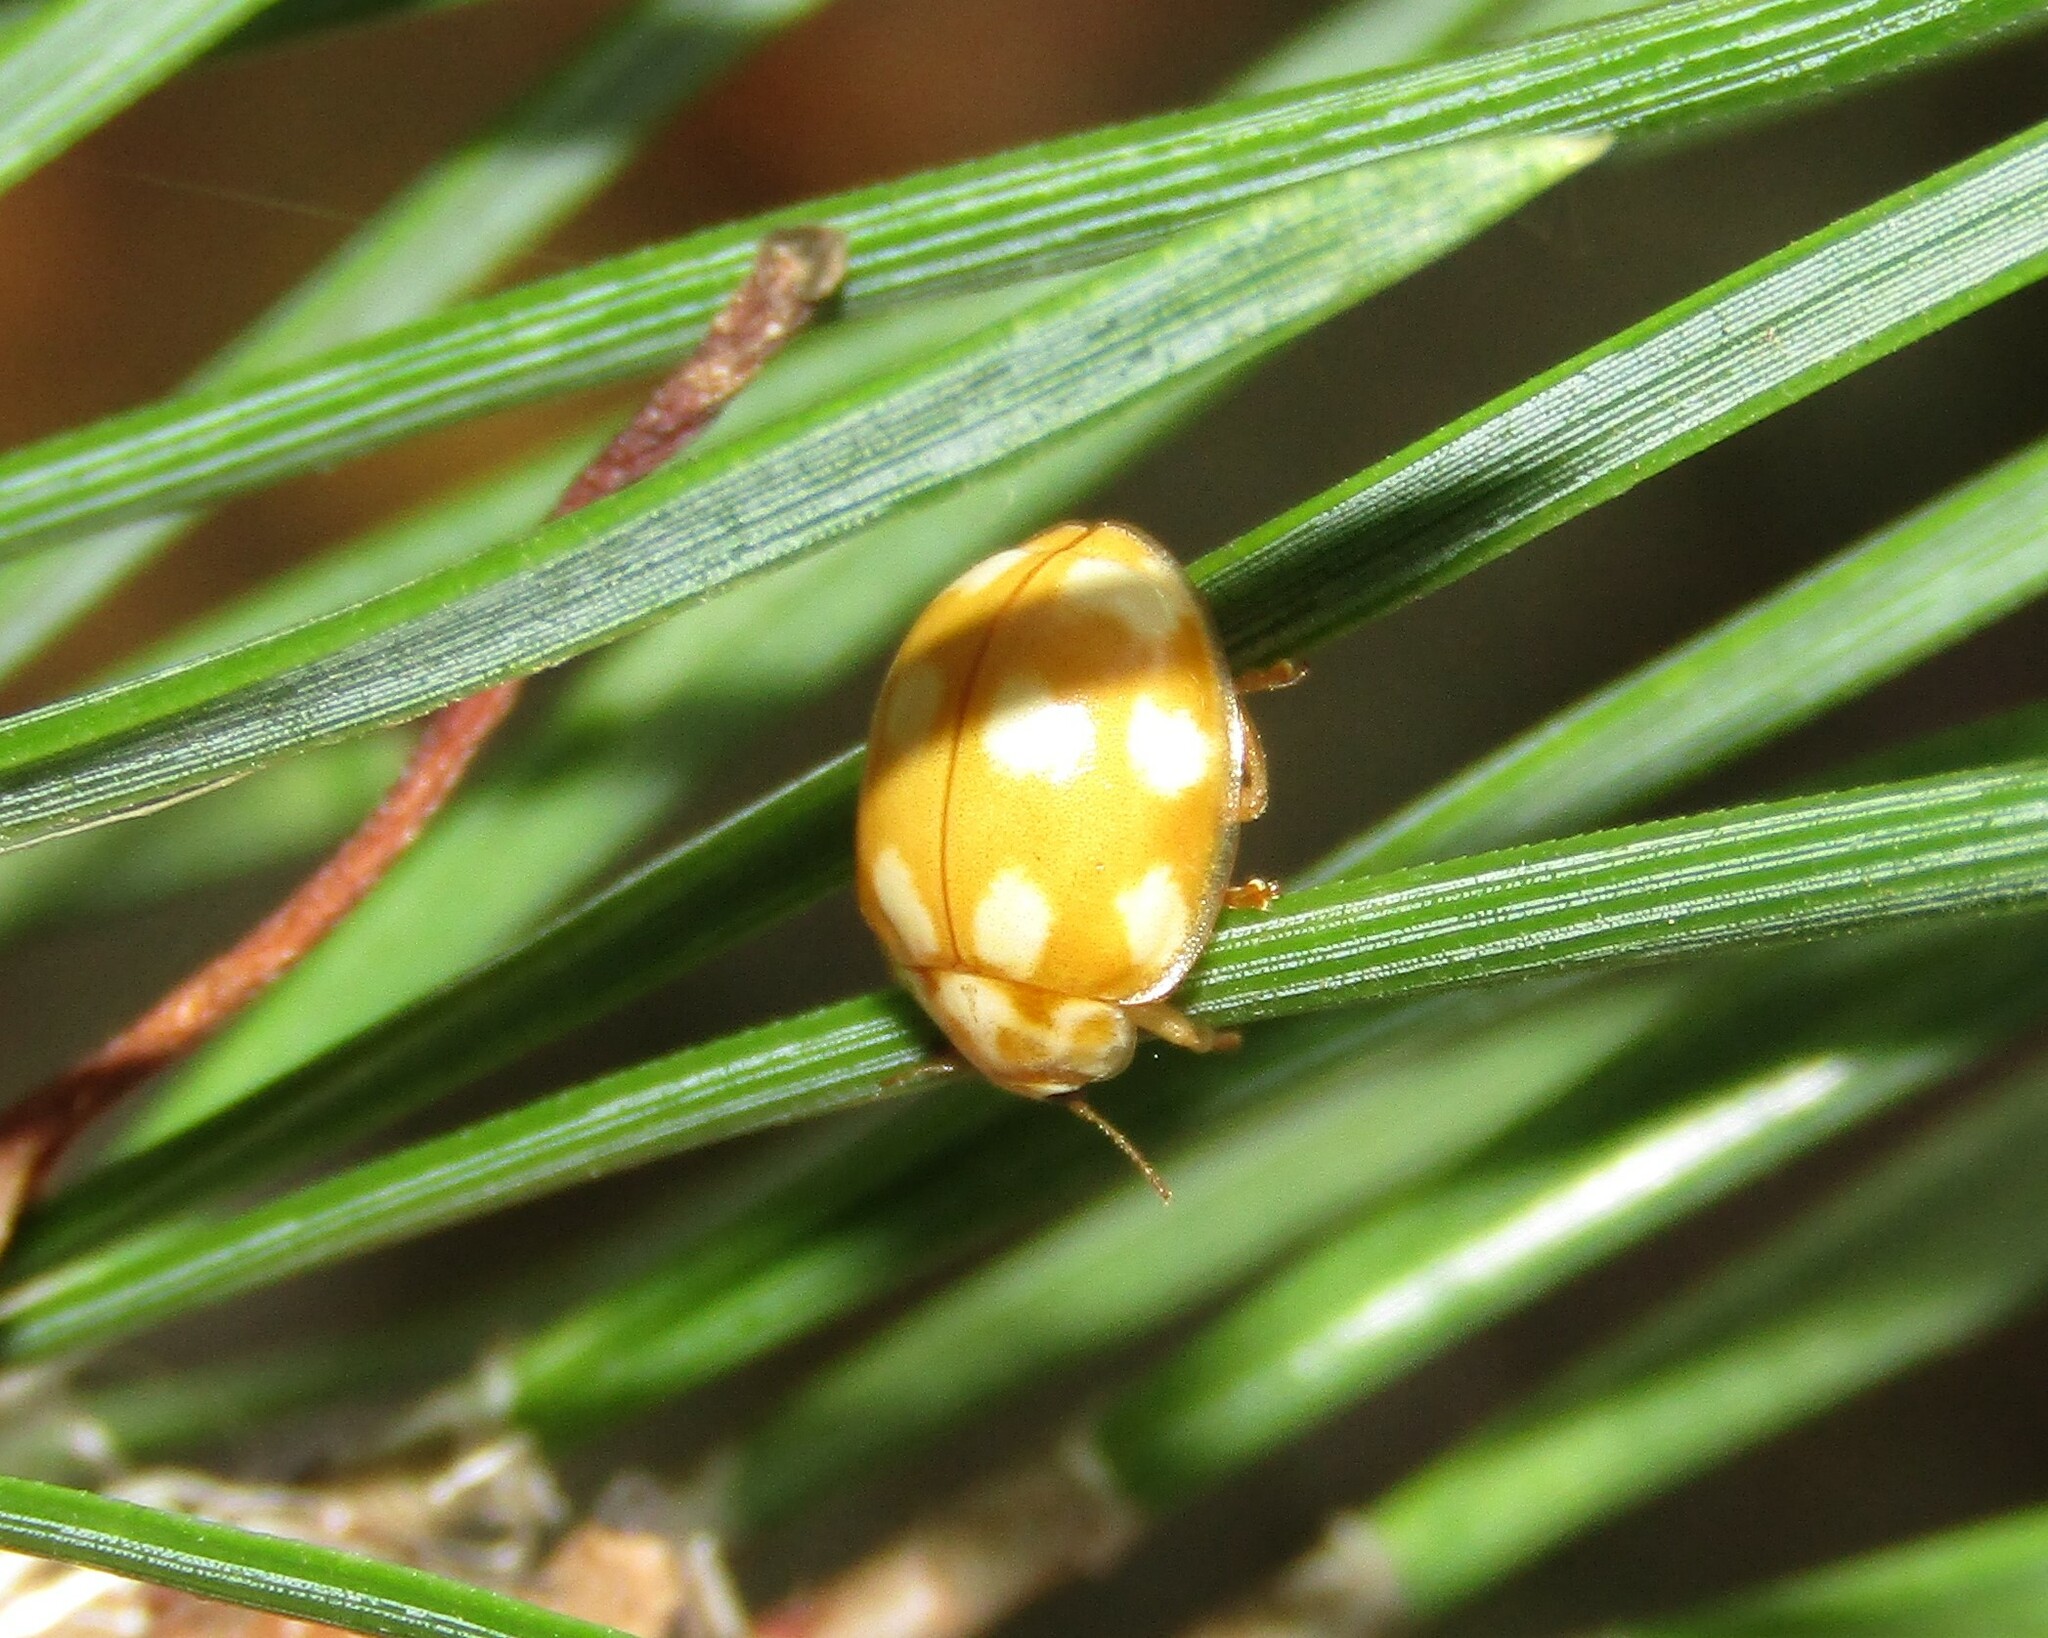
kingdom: Animalia
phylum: Arthropoda
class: Insecta
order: Coleoptera
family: Coccinellidae
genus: Calvia
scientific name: Calvia decemguttata
